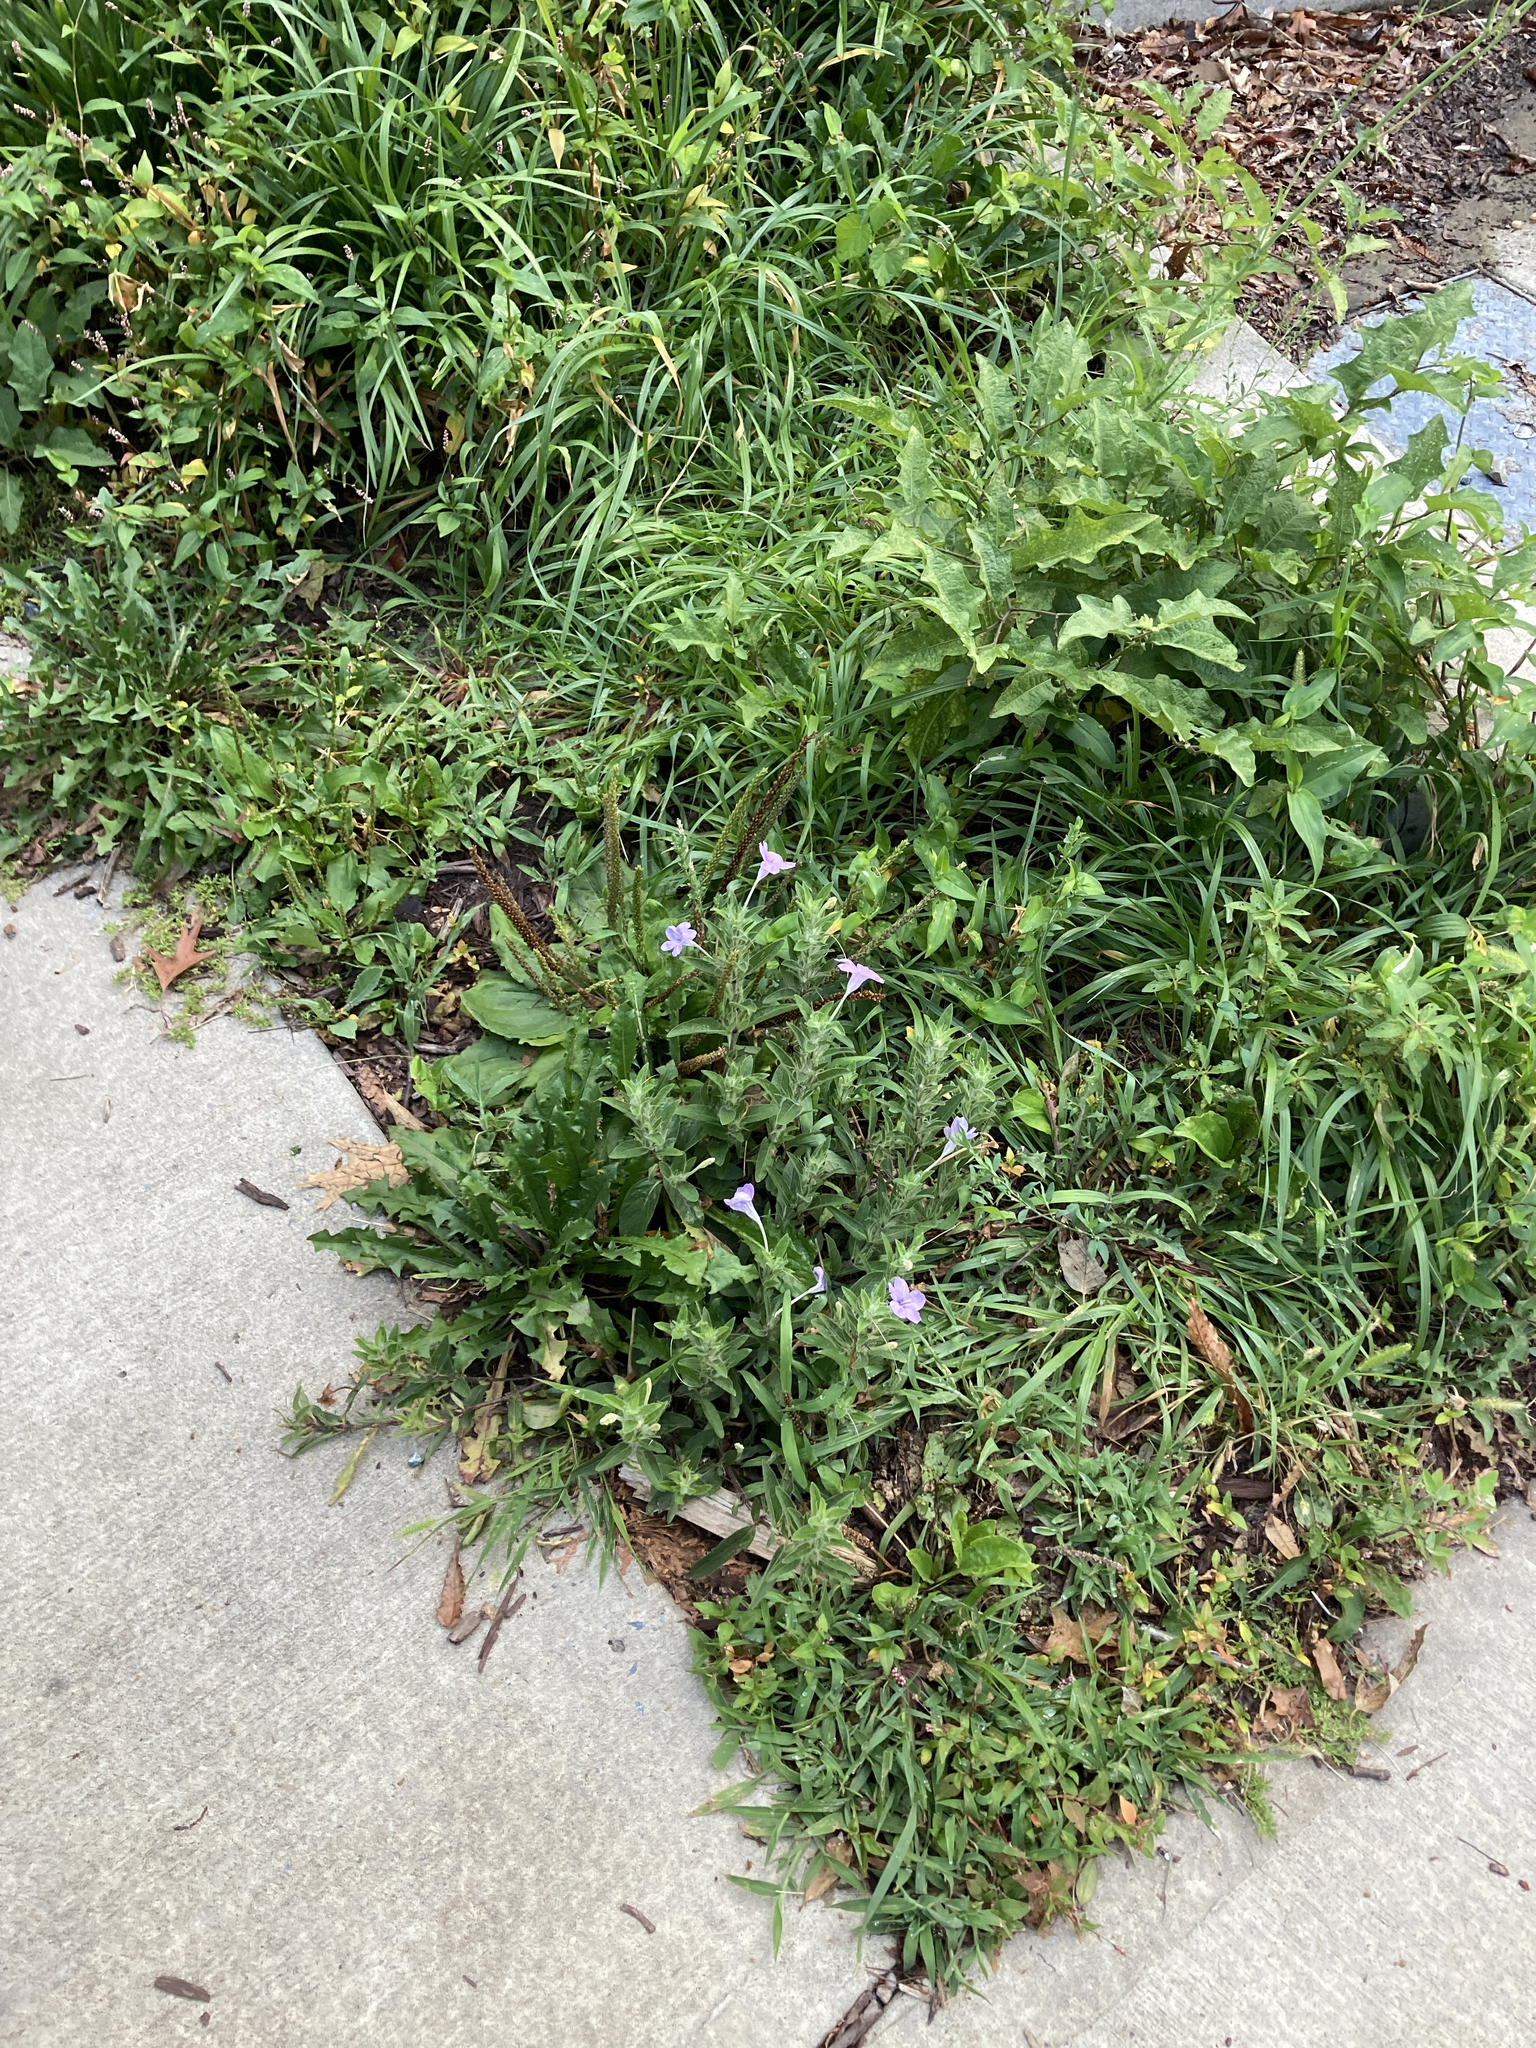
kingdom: Plantae
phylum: Tracheophyta
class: Magnoliopsida
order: Lamiales
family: Acanthaceae
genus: Ruellia
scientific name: Ruellia humilis
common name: Fringe-leaf ruellia
